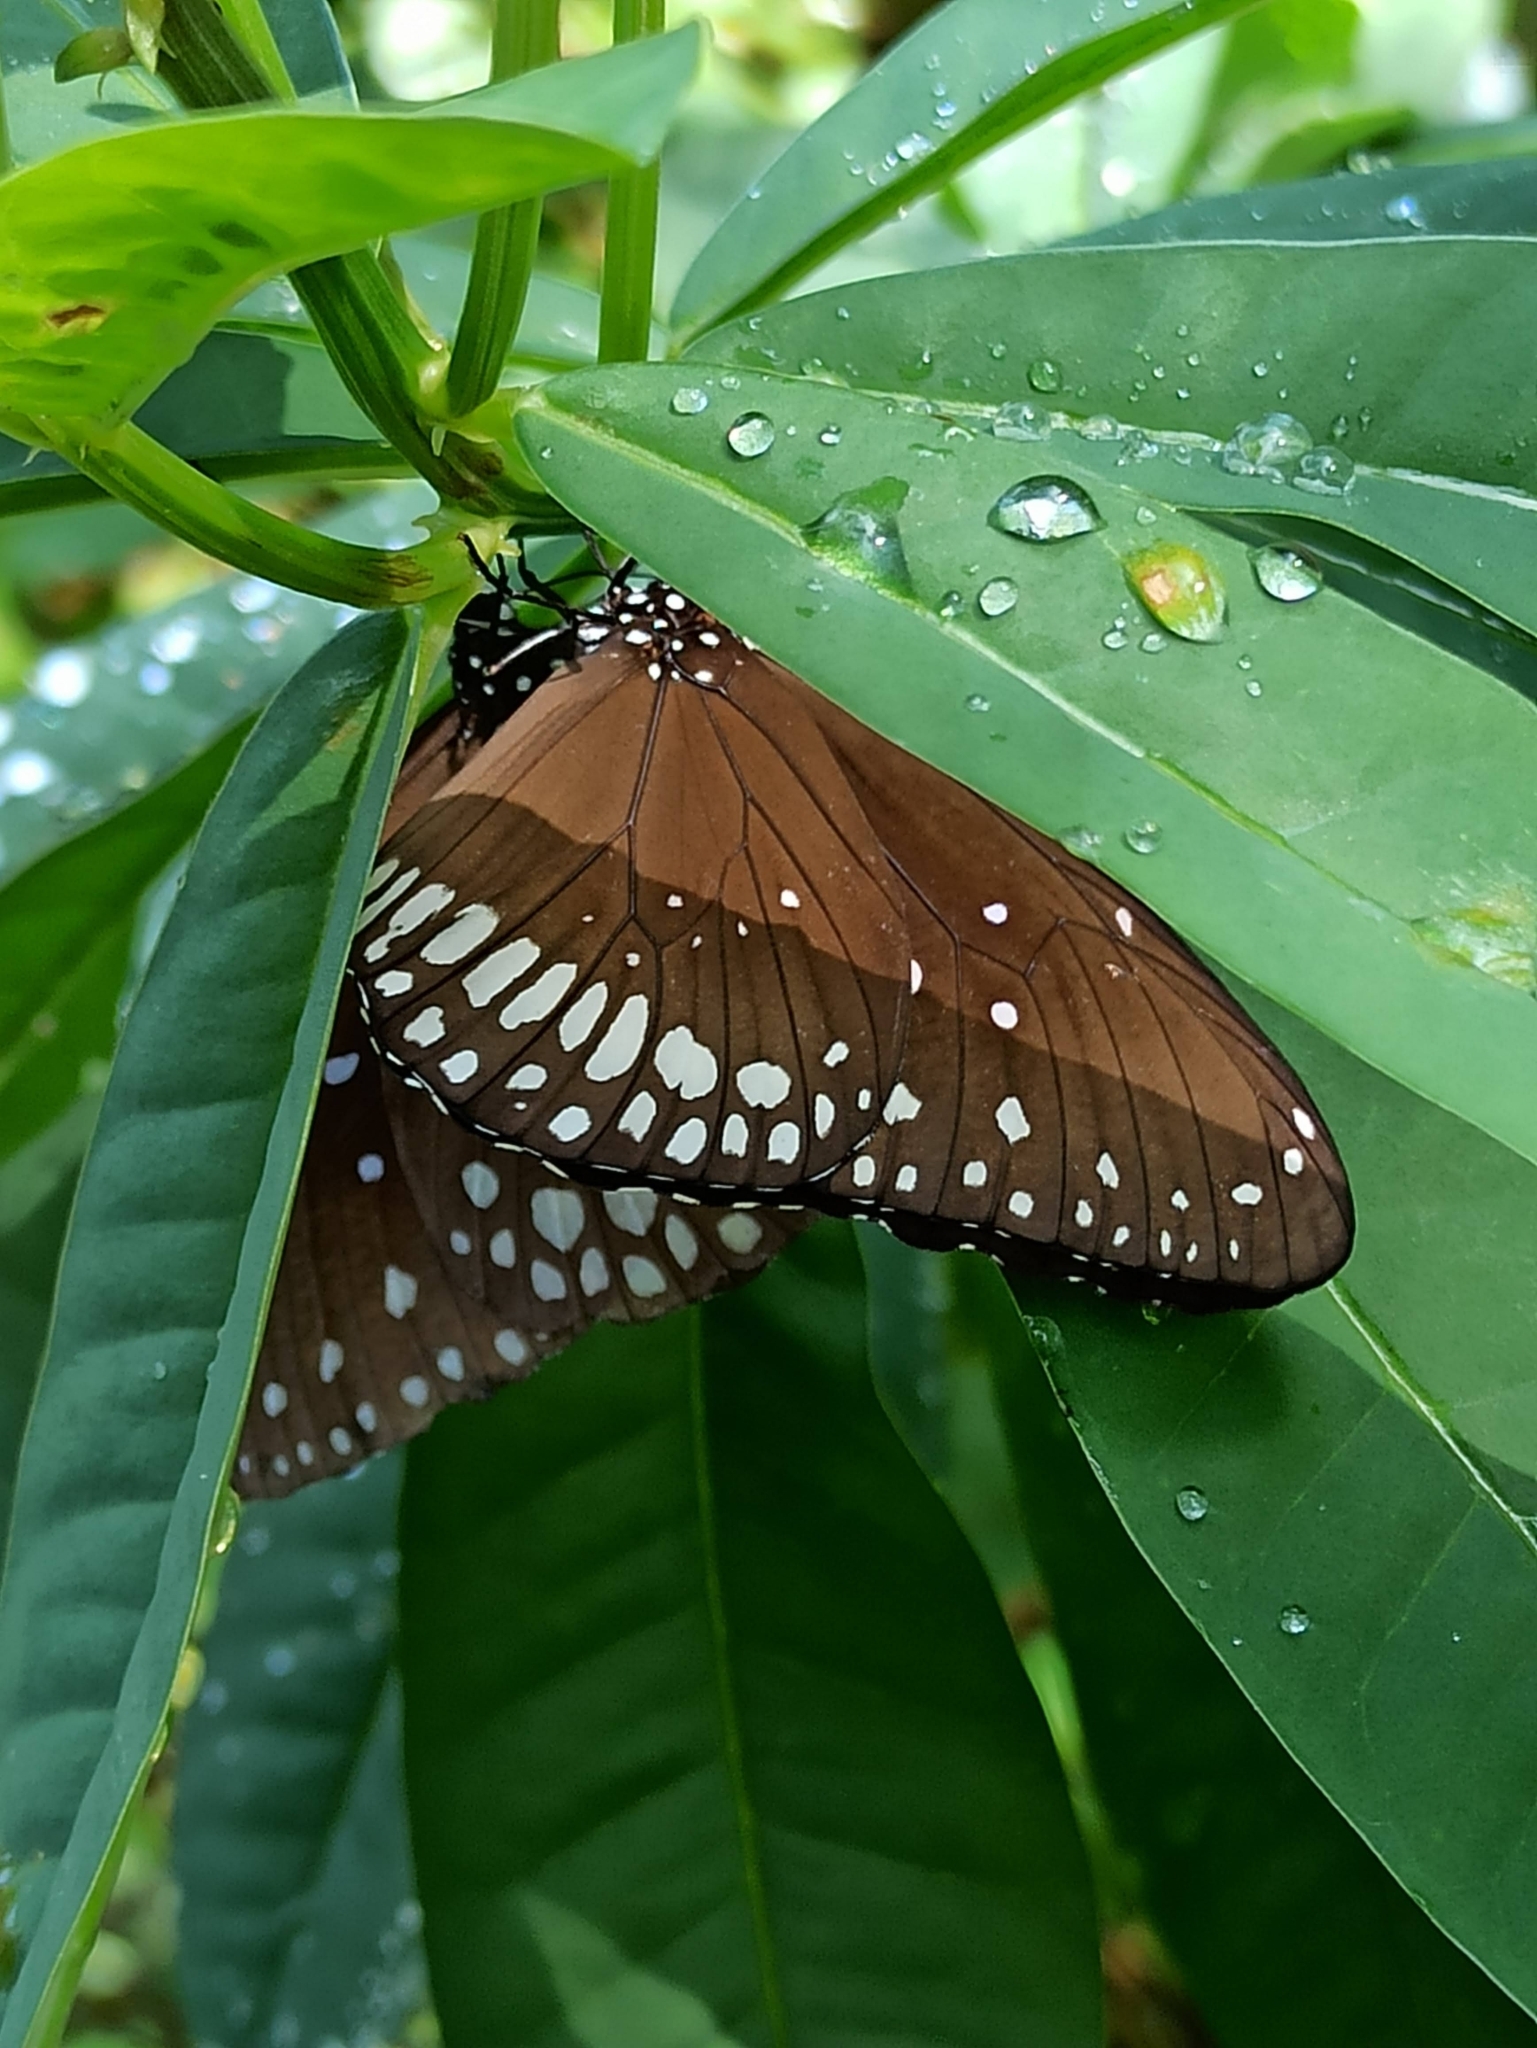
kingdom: Animalia
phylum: Arthropoda
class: Insecta
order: Lepidoptera
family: Nymphalidae
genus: Euploea
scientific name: Euploea core
